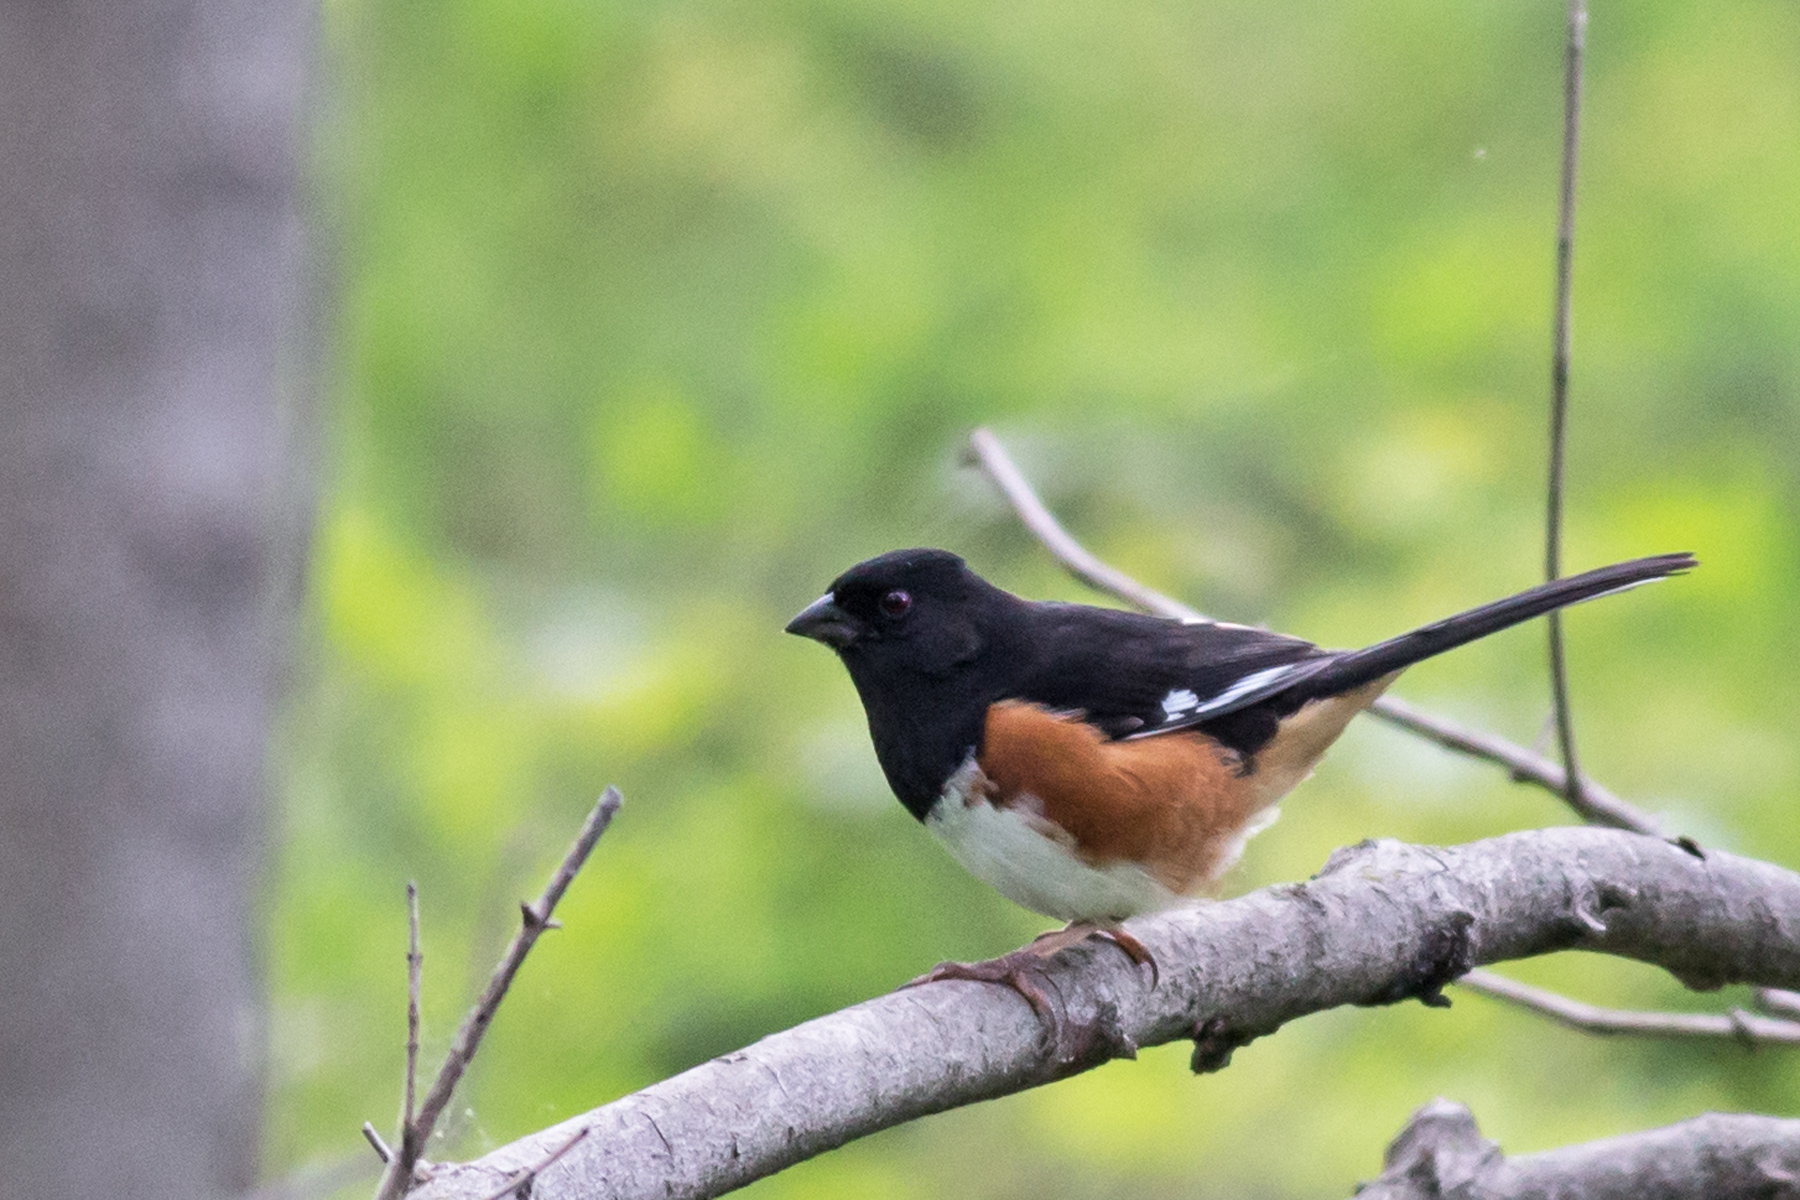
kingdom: Animalia
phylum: Chordata
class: Aves
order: Passeriformes
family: Passerellidae
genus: Pipilo
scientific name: Pipilo erythrophthalmus
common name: Eastern towhee
